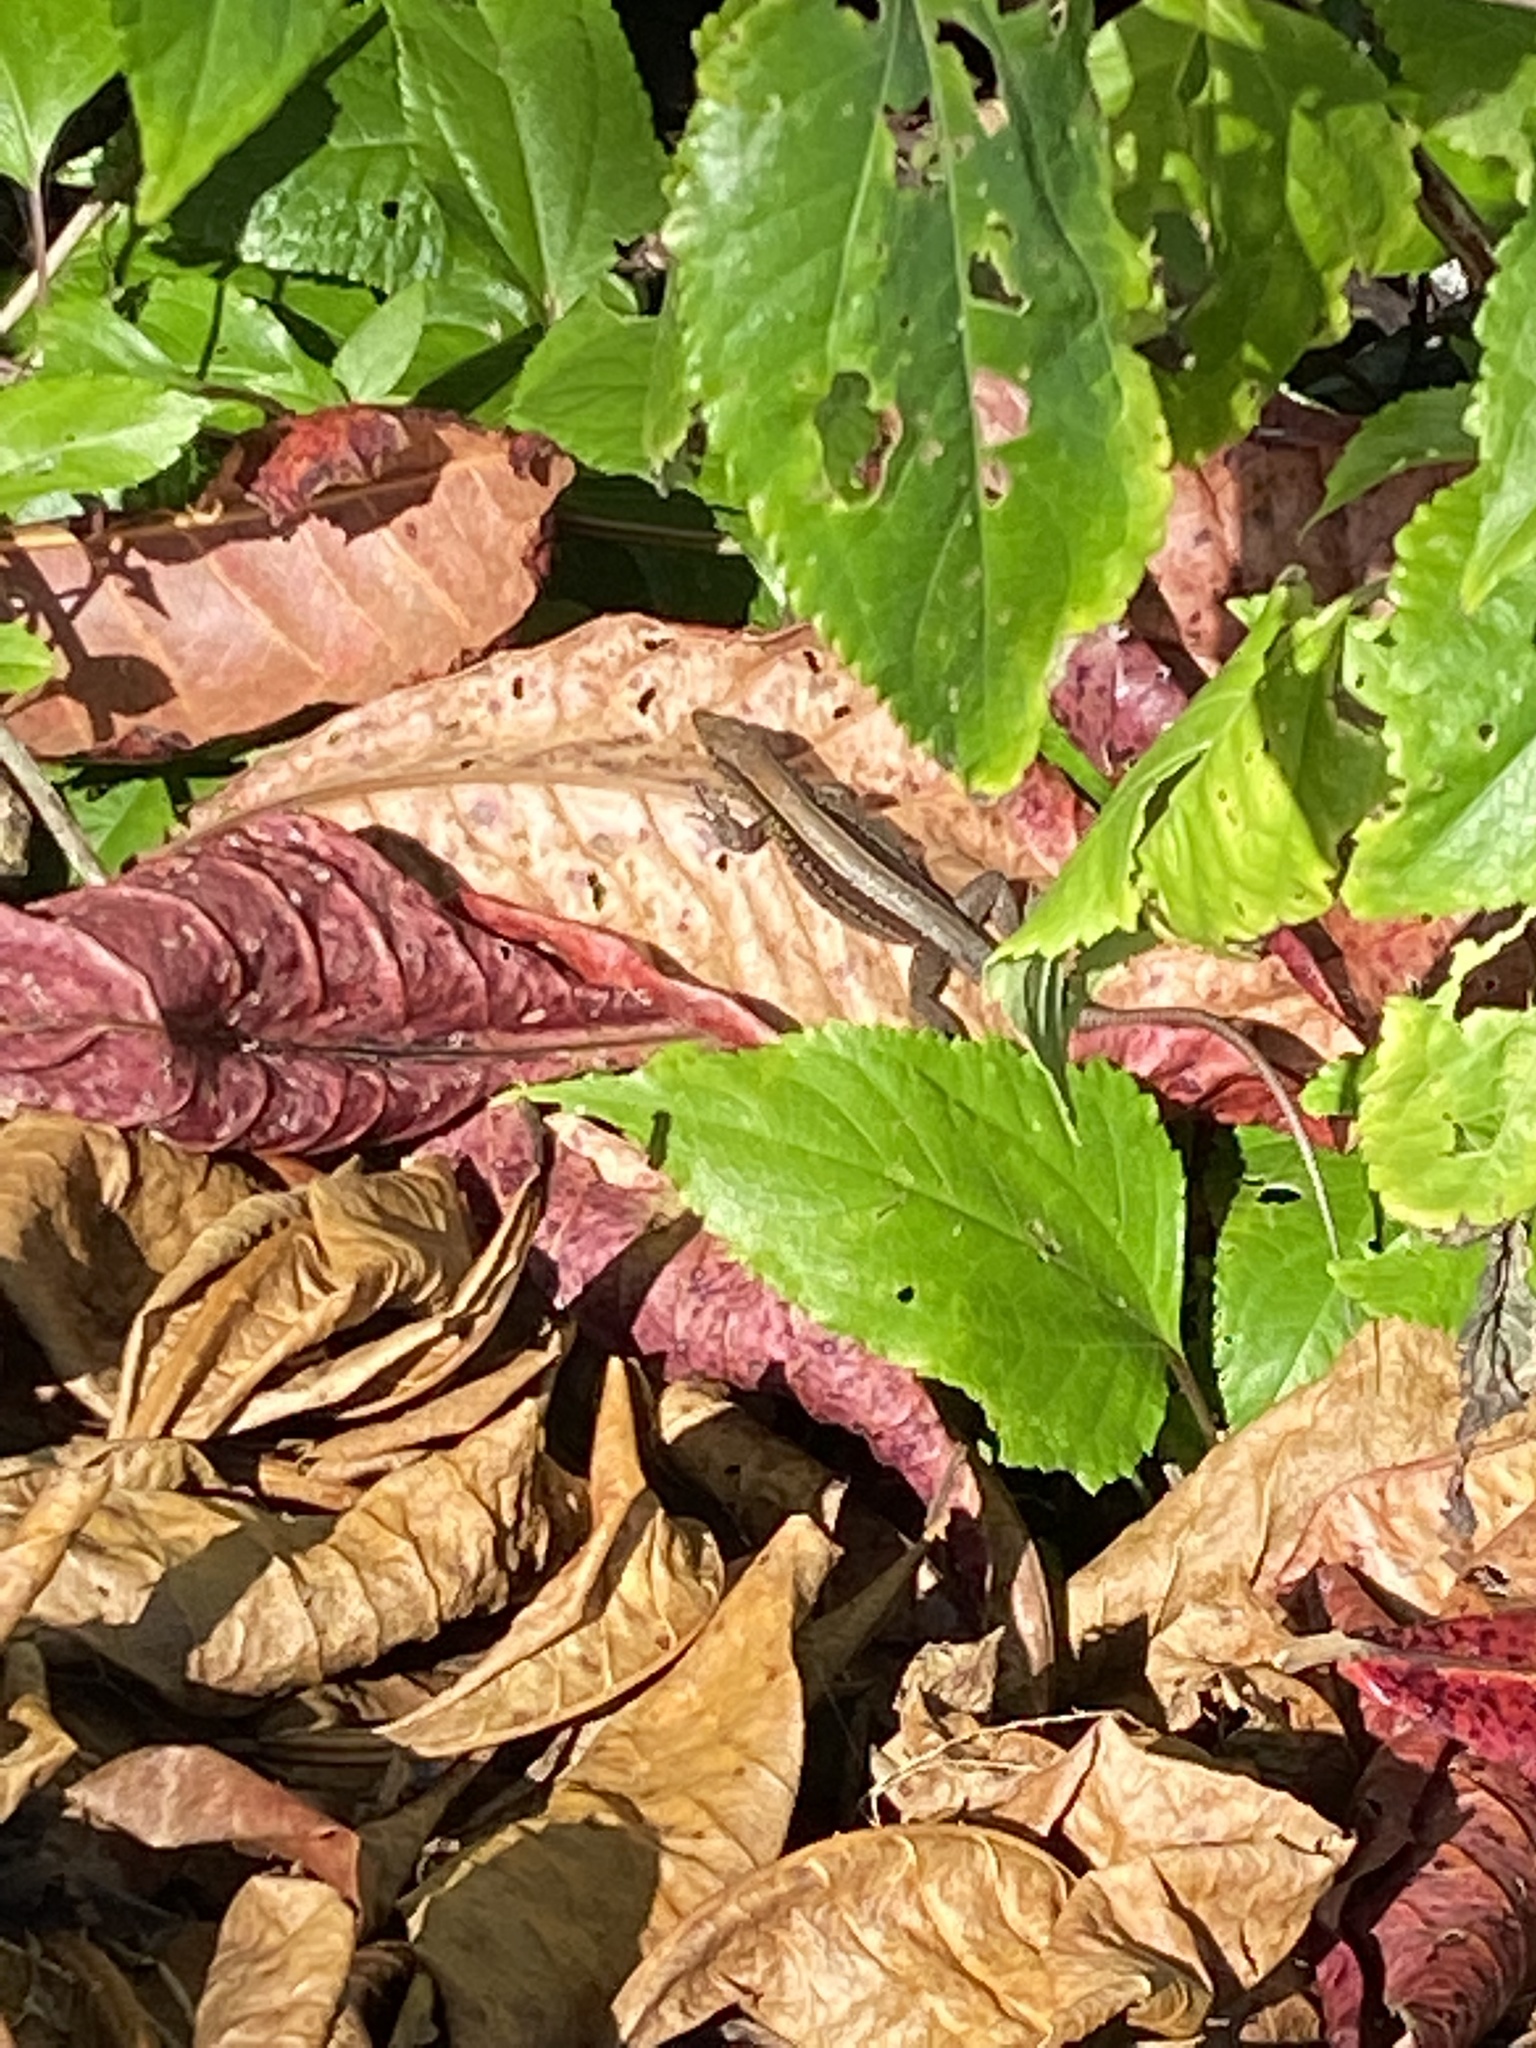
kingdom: Animalia
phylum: Chordata
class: Squamata
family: Teiidae
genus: Holcosus
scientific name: Holcosus quadrilineatus
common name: Four-lined ameiva
